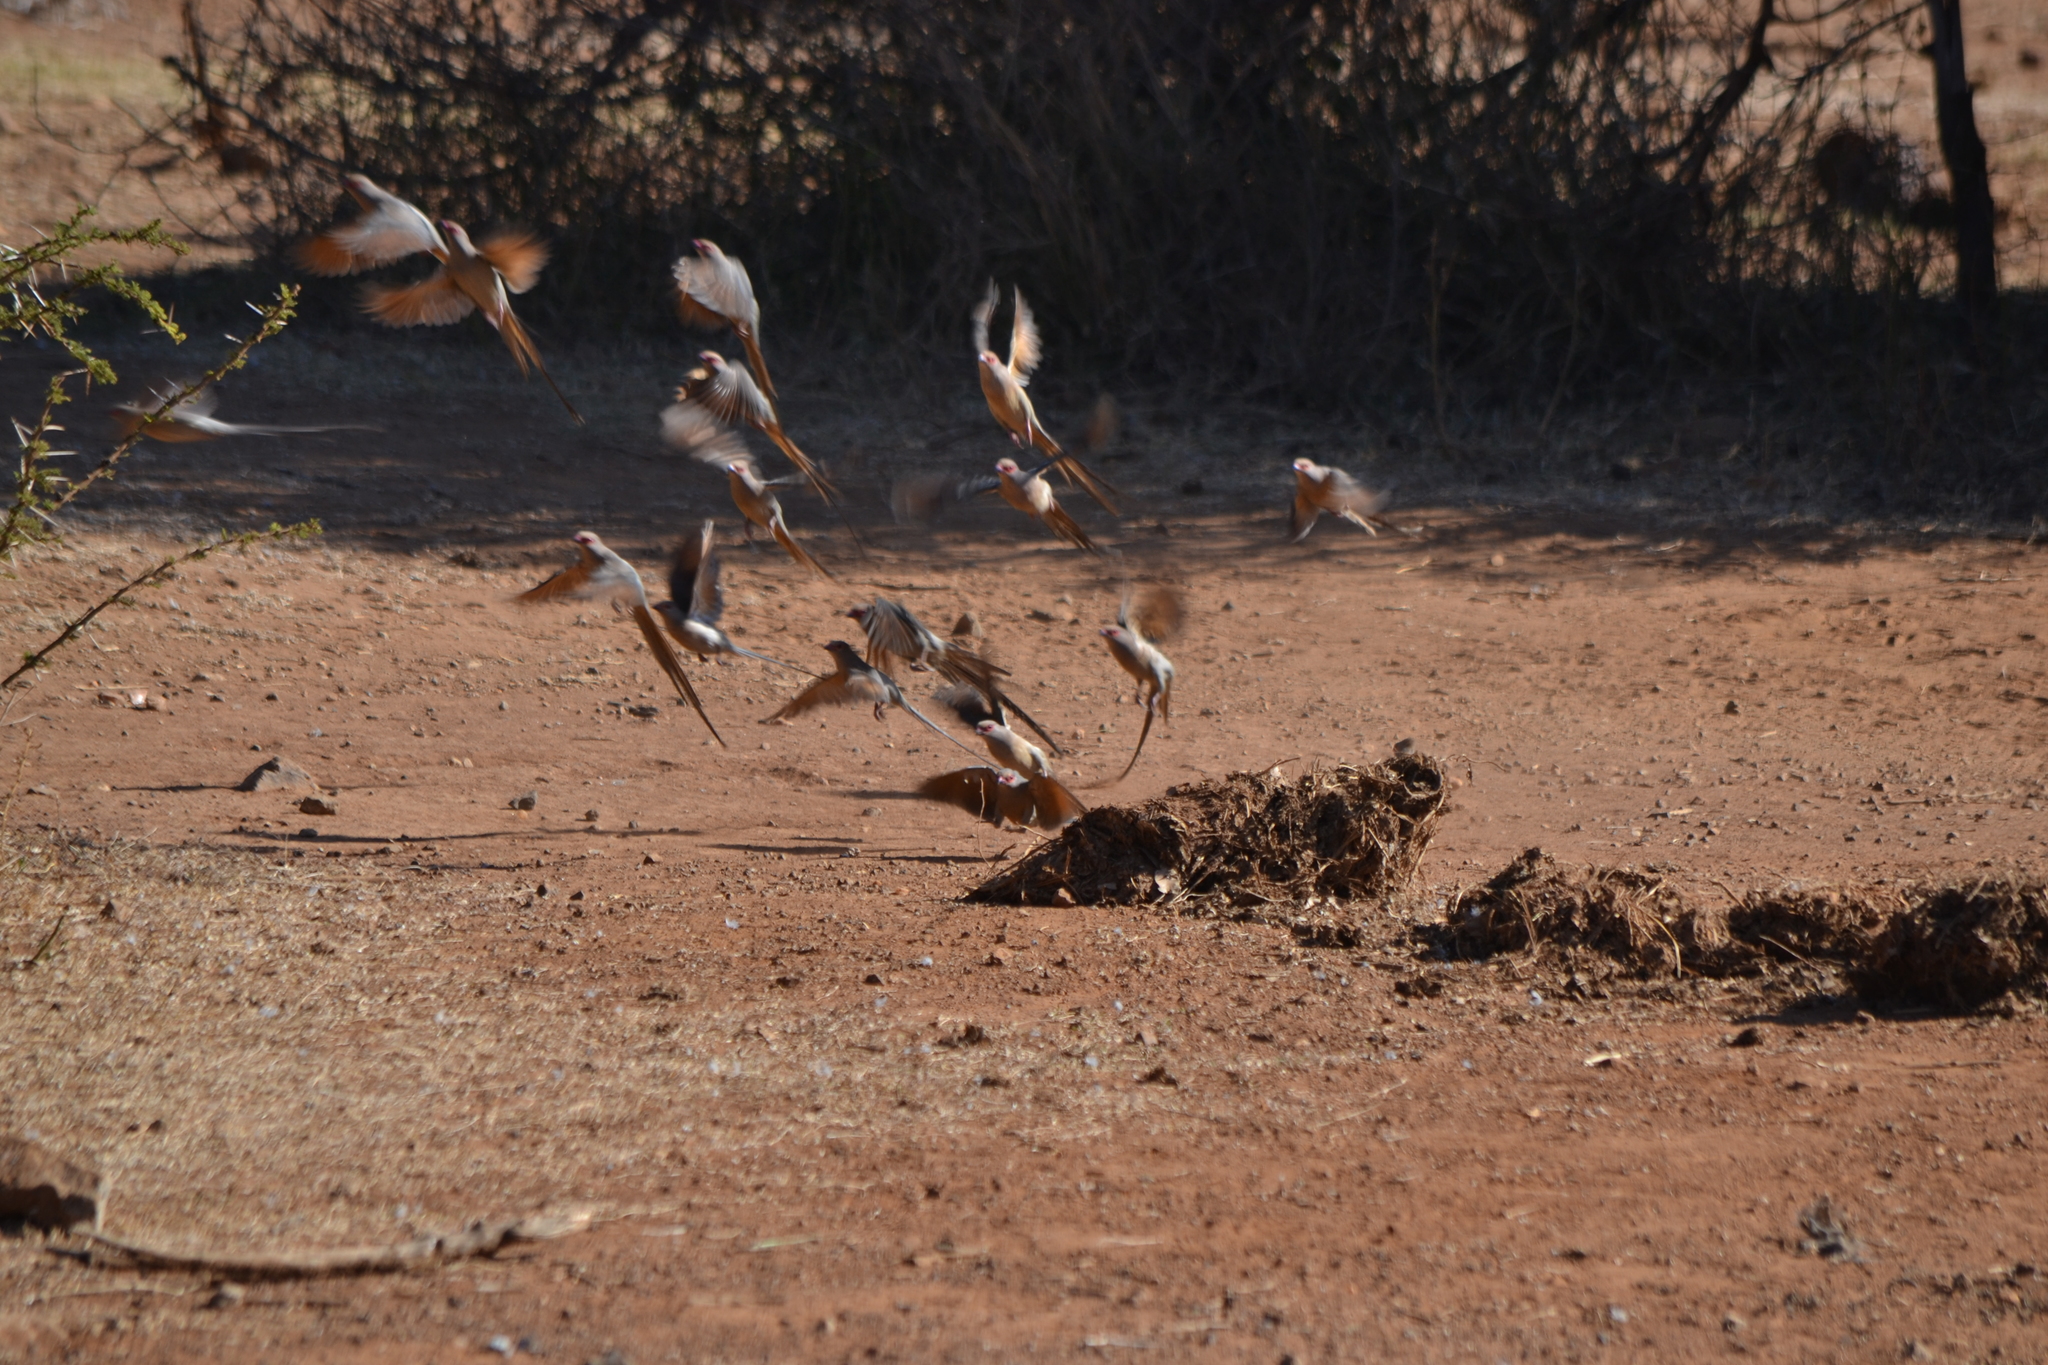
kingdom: Animalia
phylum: Chordata
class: Aves
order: Coliiformes
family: Coliidae
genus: Urocolius
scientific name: Urocolius indicus
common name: Red-faced mousebird
